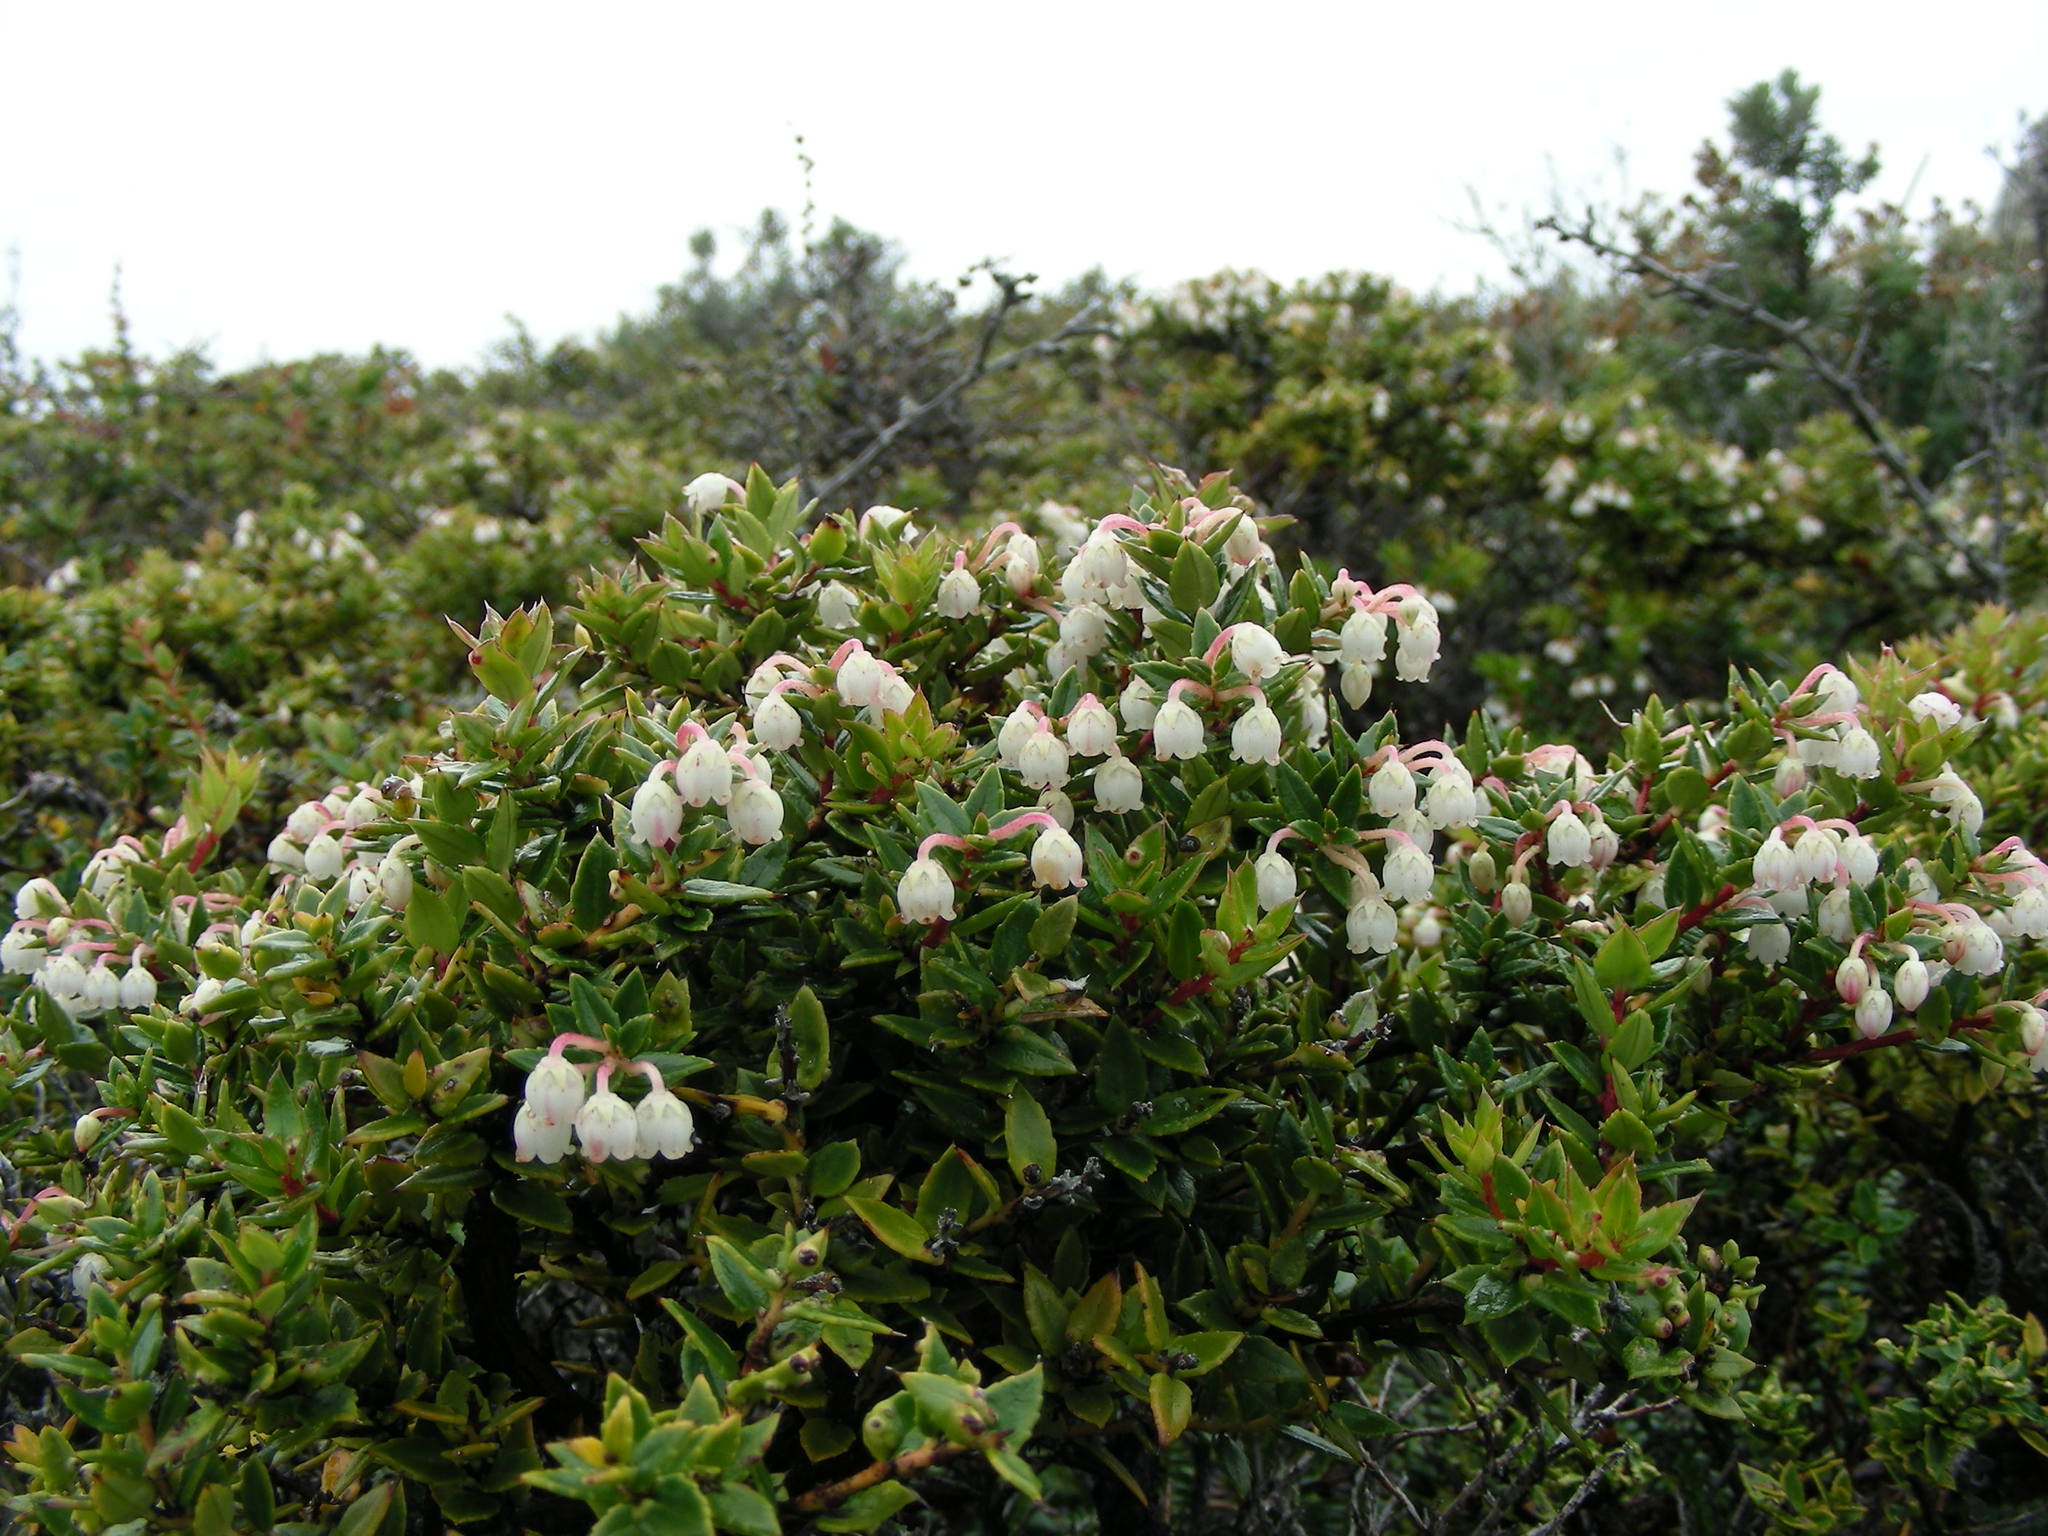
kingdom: Plantae
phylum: Tracheophyta
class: Magnoliopsida
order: Ericales
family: Ericaceae
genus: Gaultheria
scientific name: Gaultheria mucronata
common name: Prickly heath
